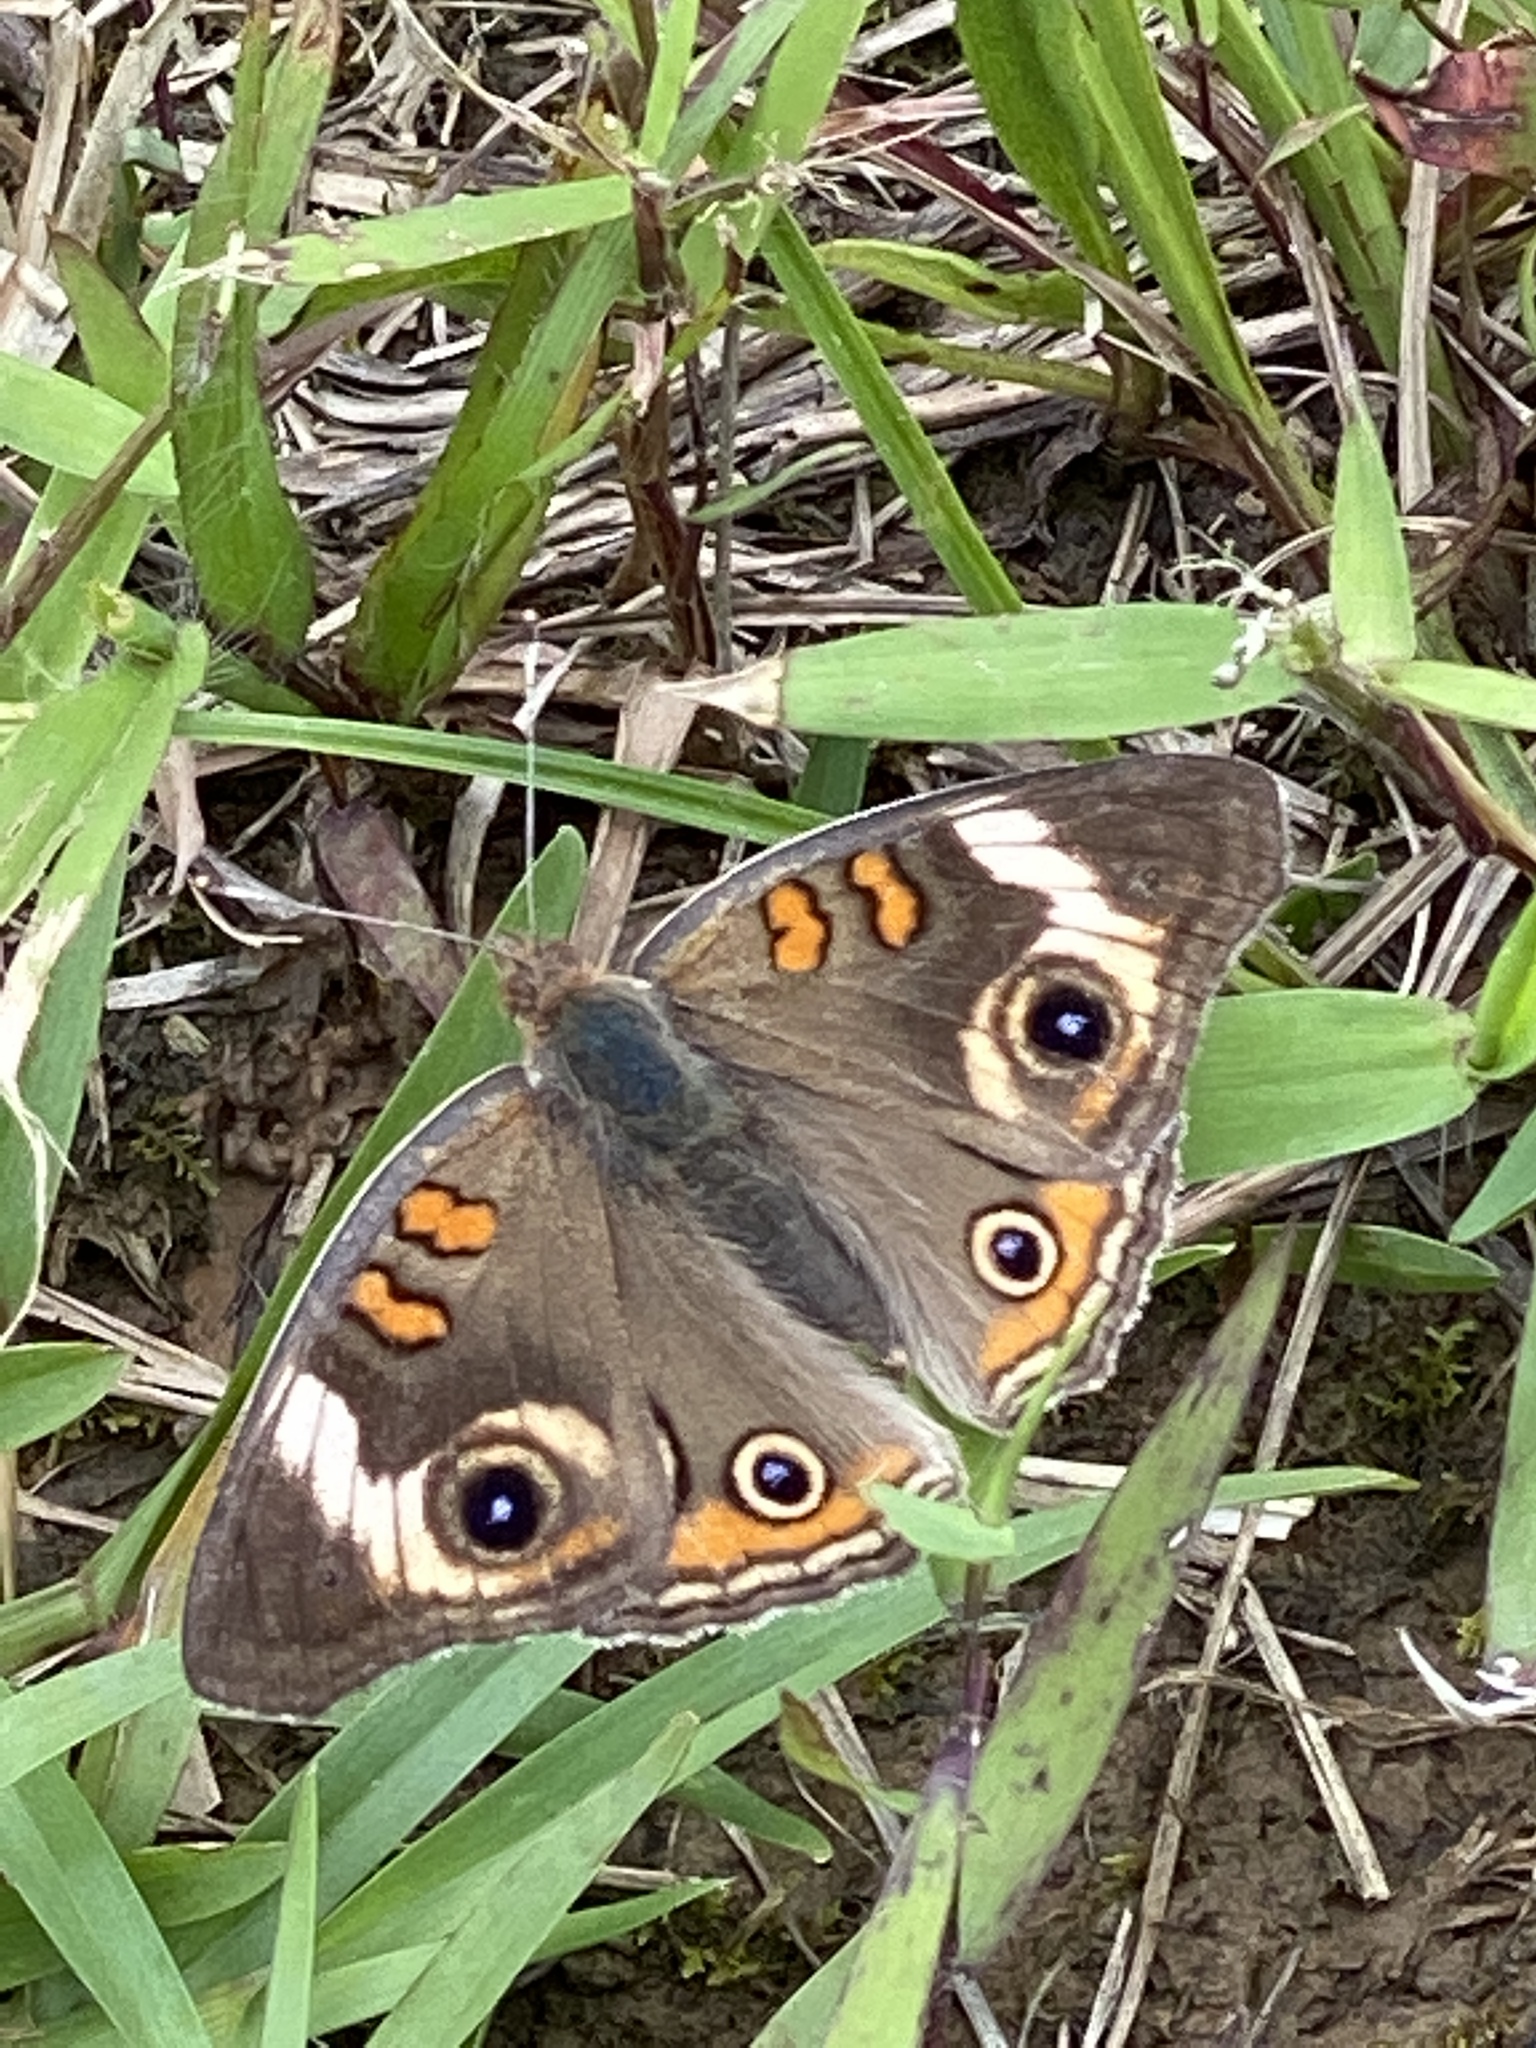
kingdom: Animalia
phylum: Arthropoda
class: Insecta
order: Lepidoptera
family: Nymphalidae
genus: Junonia
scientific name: Junonia coenia
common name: Common buckeye
